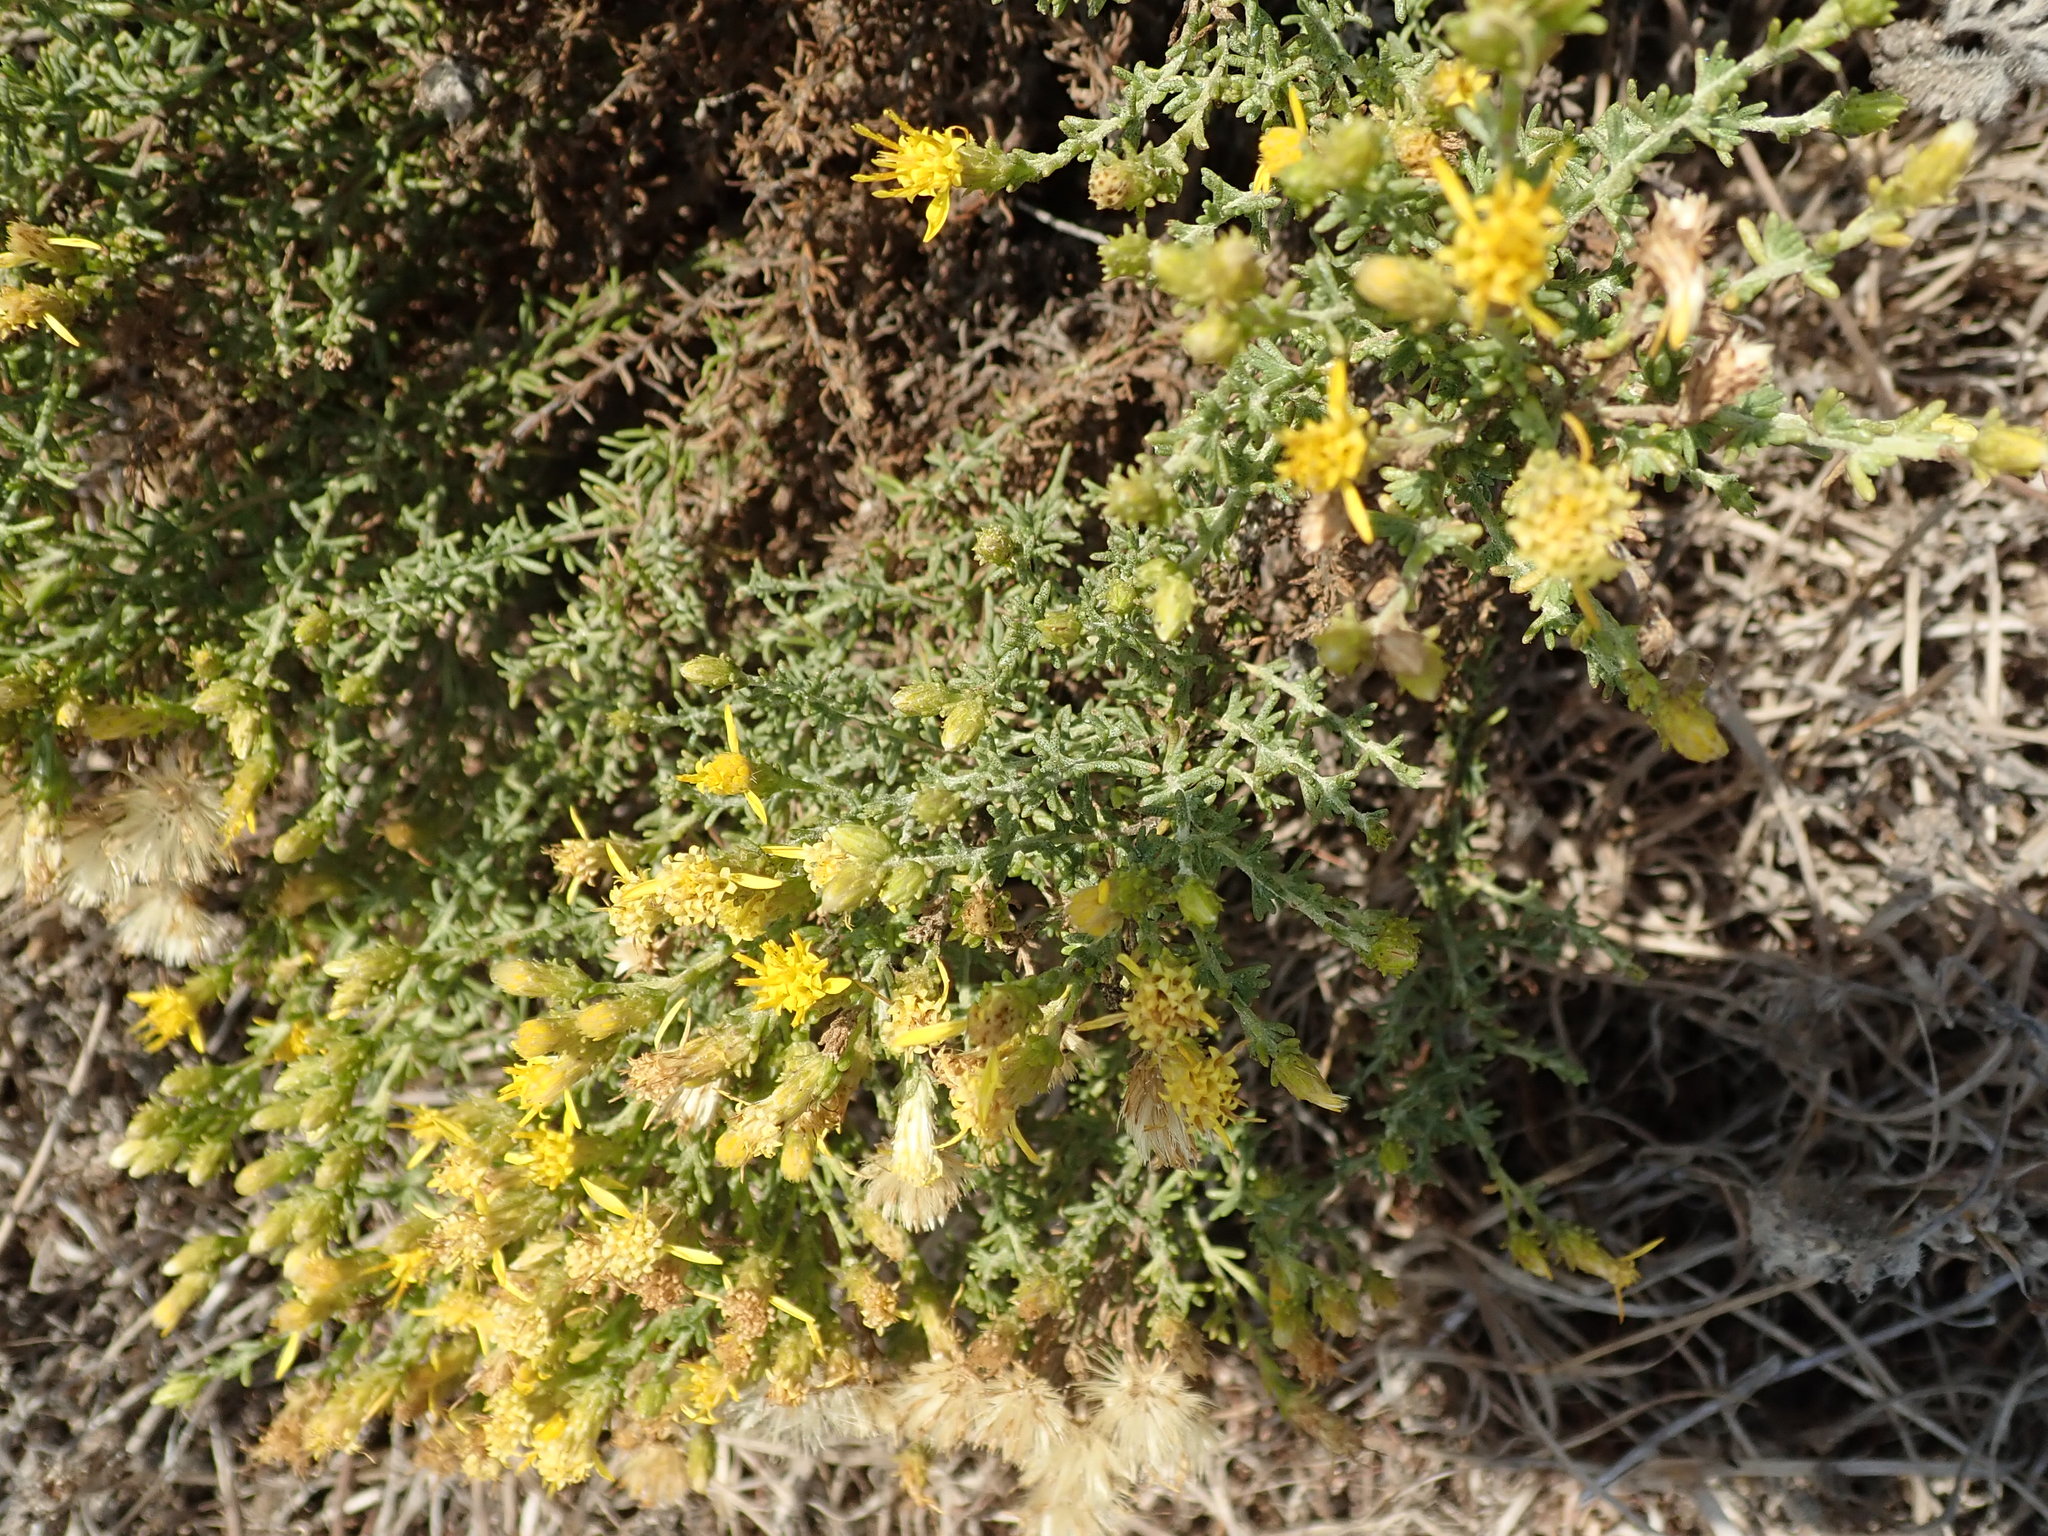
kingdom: Plantae
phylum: Tracheophyta
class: Magnoliopsida
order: Asterales
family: Asteraceae
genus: Ericameria
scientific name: Ericameria ericoides
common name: California goldenbush
